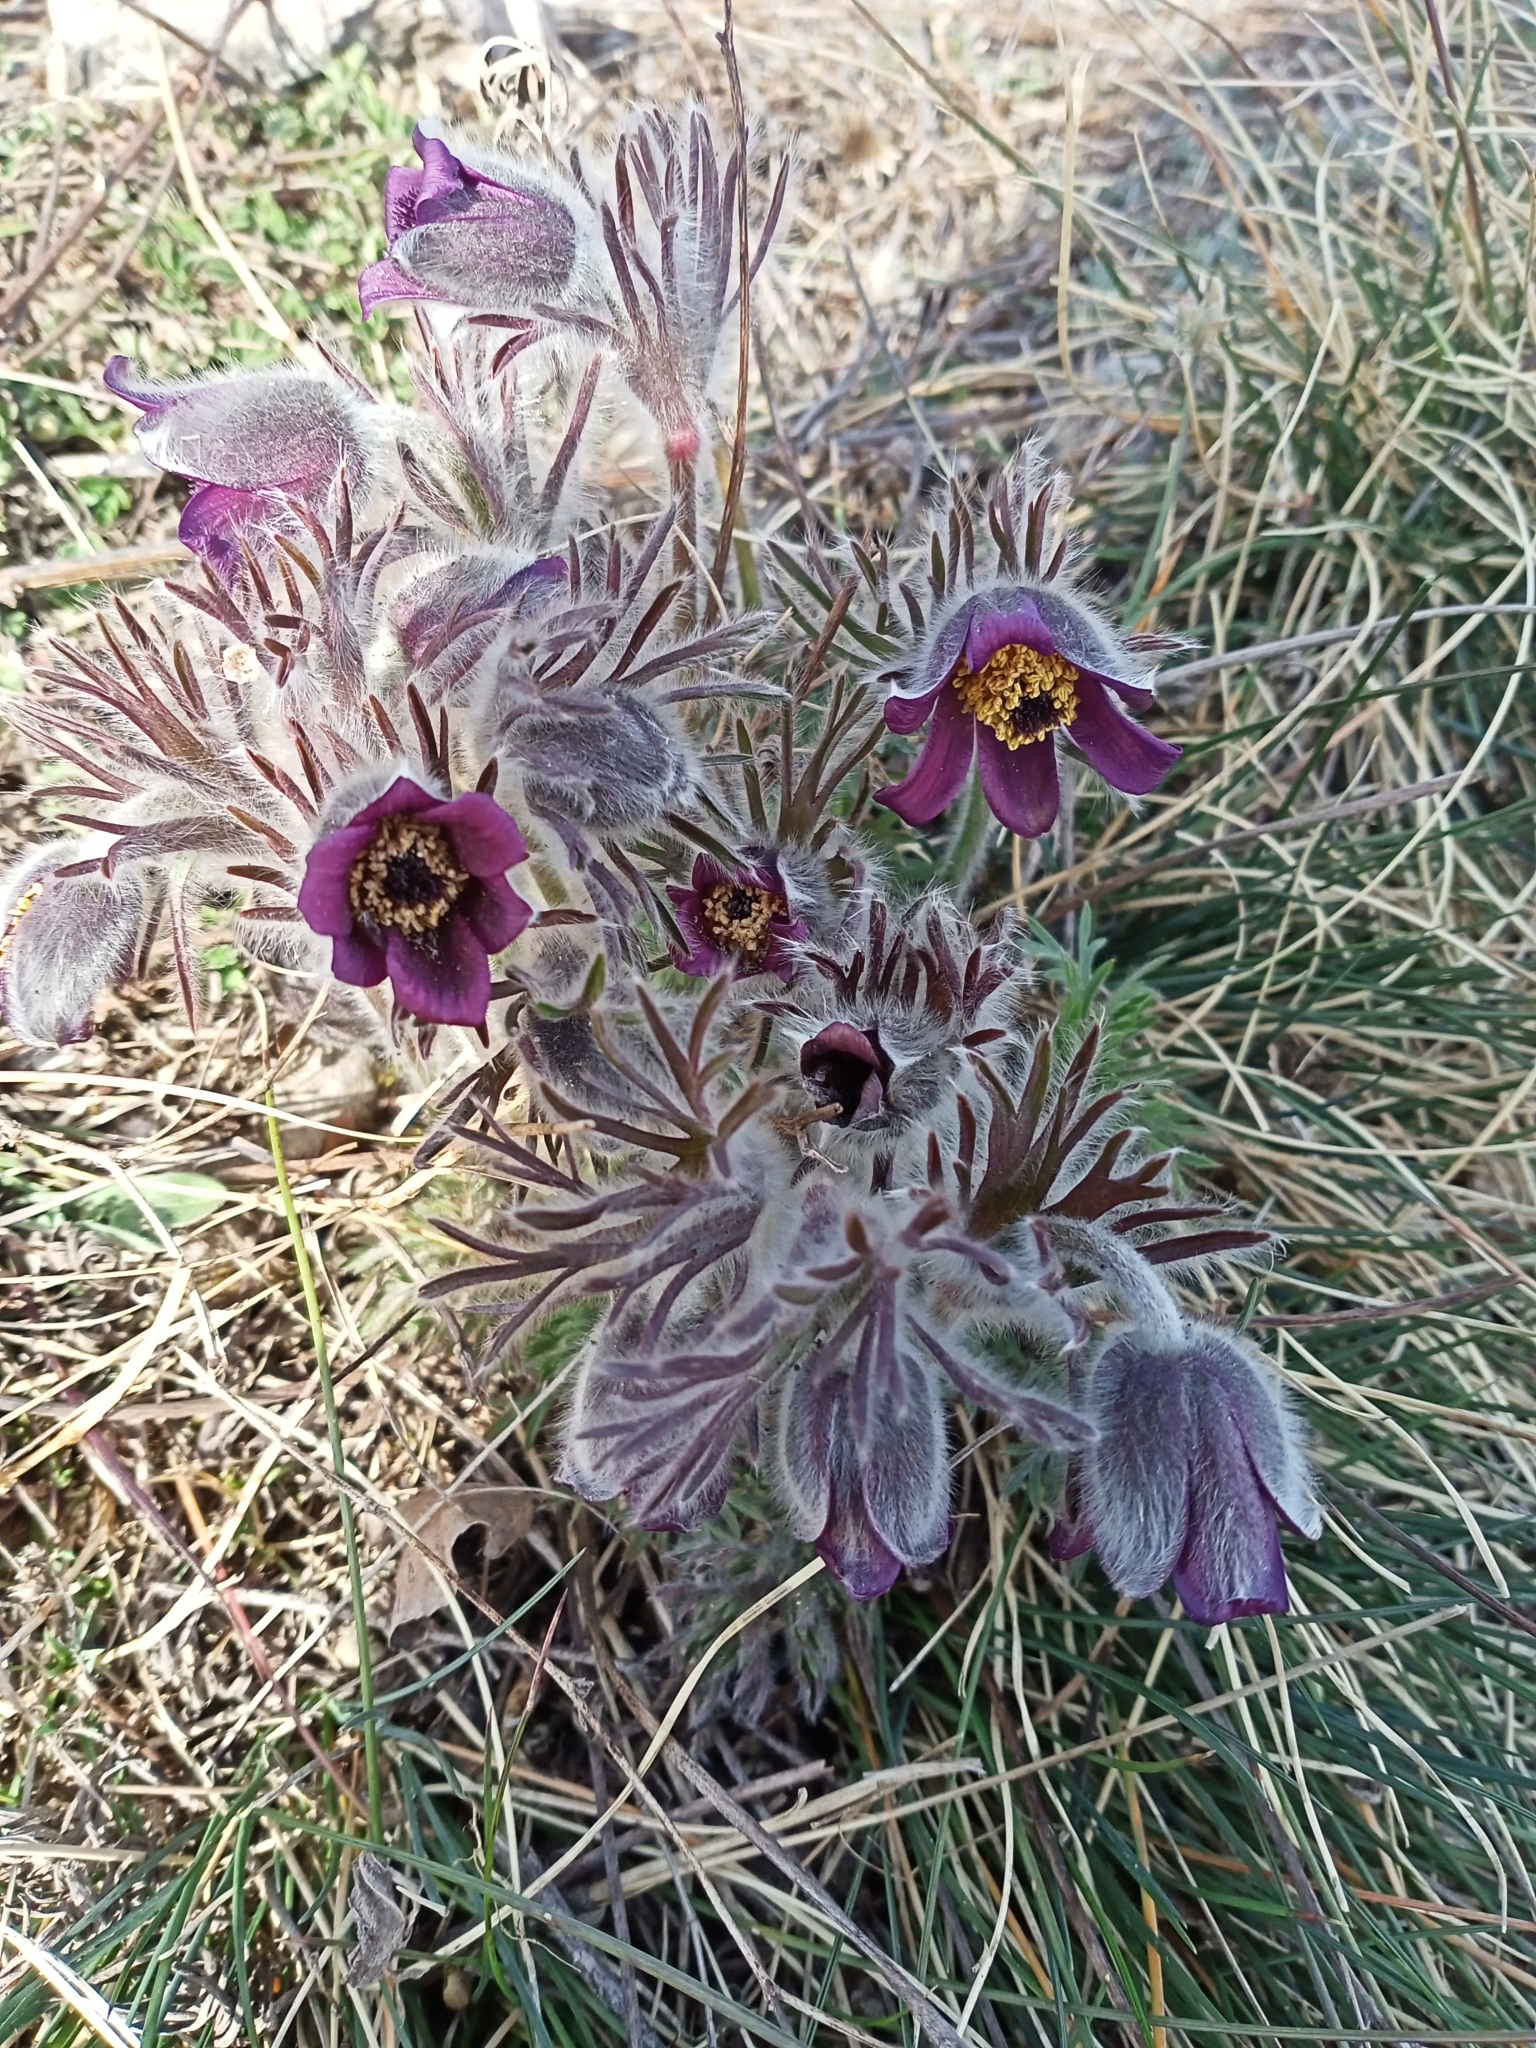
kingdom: Plantae
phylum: Tracheophyta
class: Magnoliopsida
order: Ranunculales
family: Ranunculaceae
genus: Pulsatilla
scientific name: Pulsatilla pratensis
